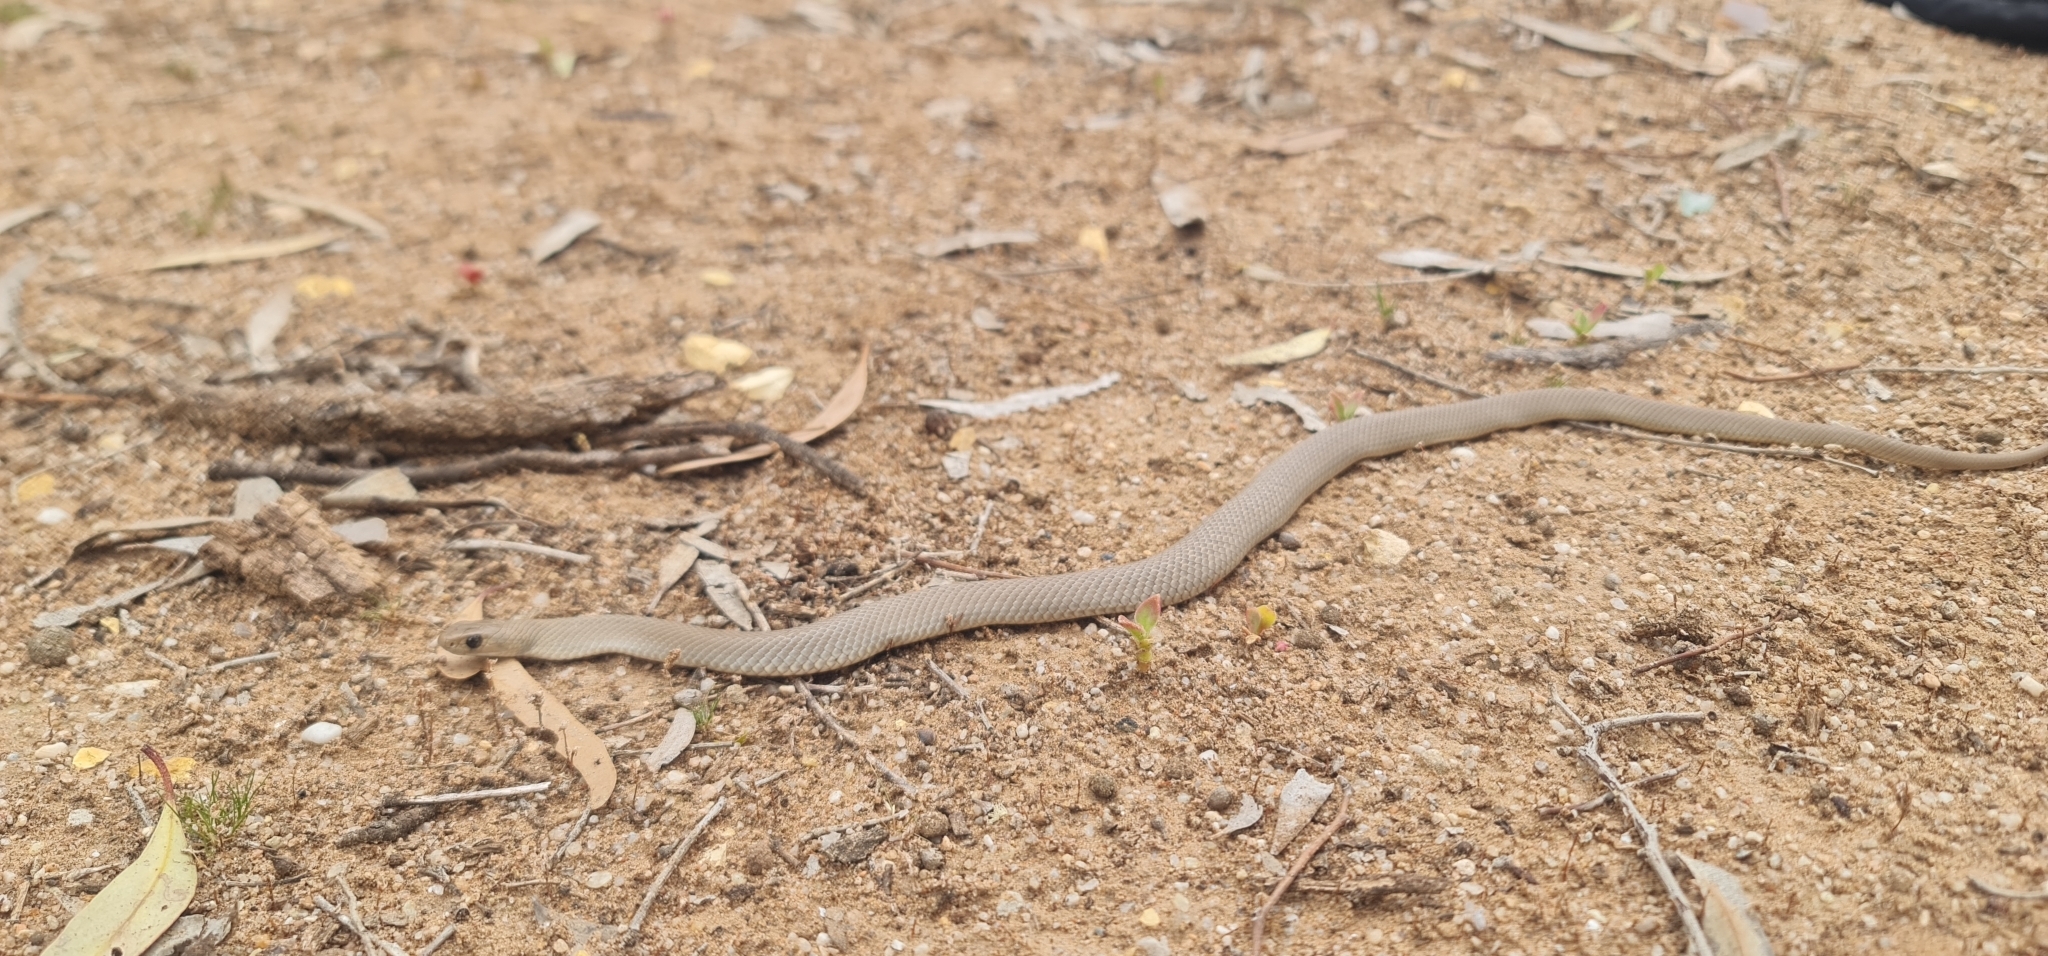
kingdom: Animalia
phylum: Chordata
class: Squamata
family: Elapidae
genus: Pseudonaja
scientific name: Pseudonaja textilis
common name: Eastern brown snake
